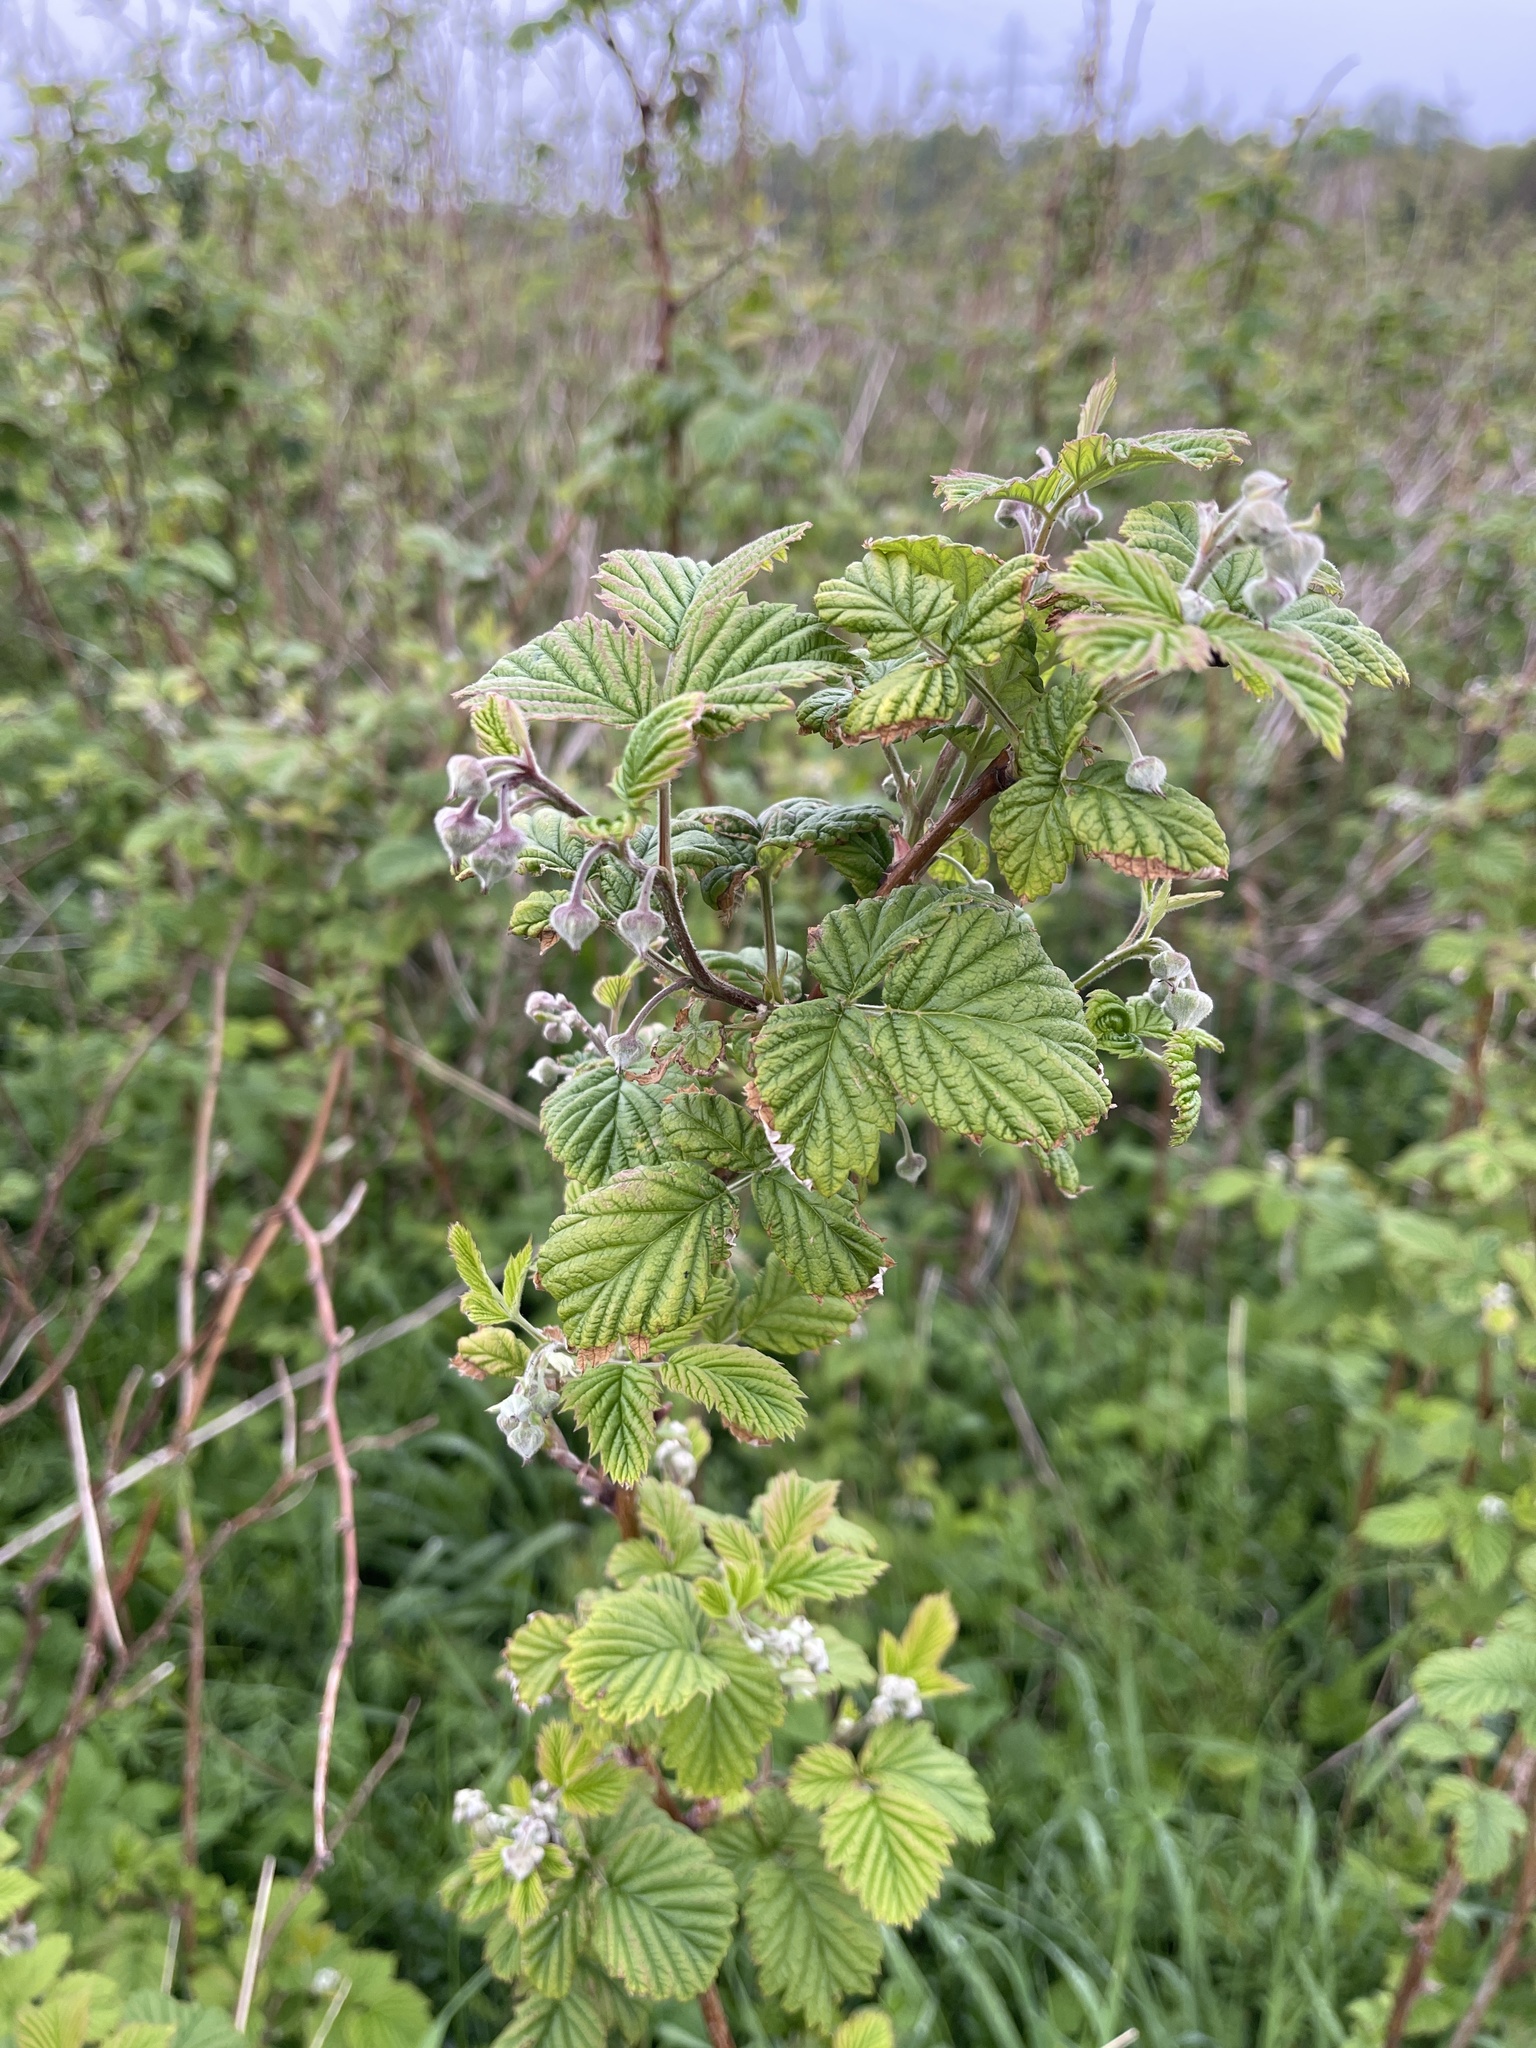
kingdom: Plantae
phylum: Tracheophyta
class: Magnoliopsida
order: Rosales
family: Rosaceae
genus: Rubus
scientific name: Rubus idaeus
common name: Raspberry
